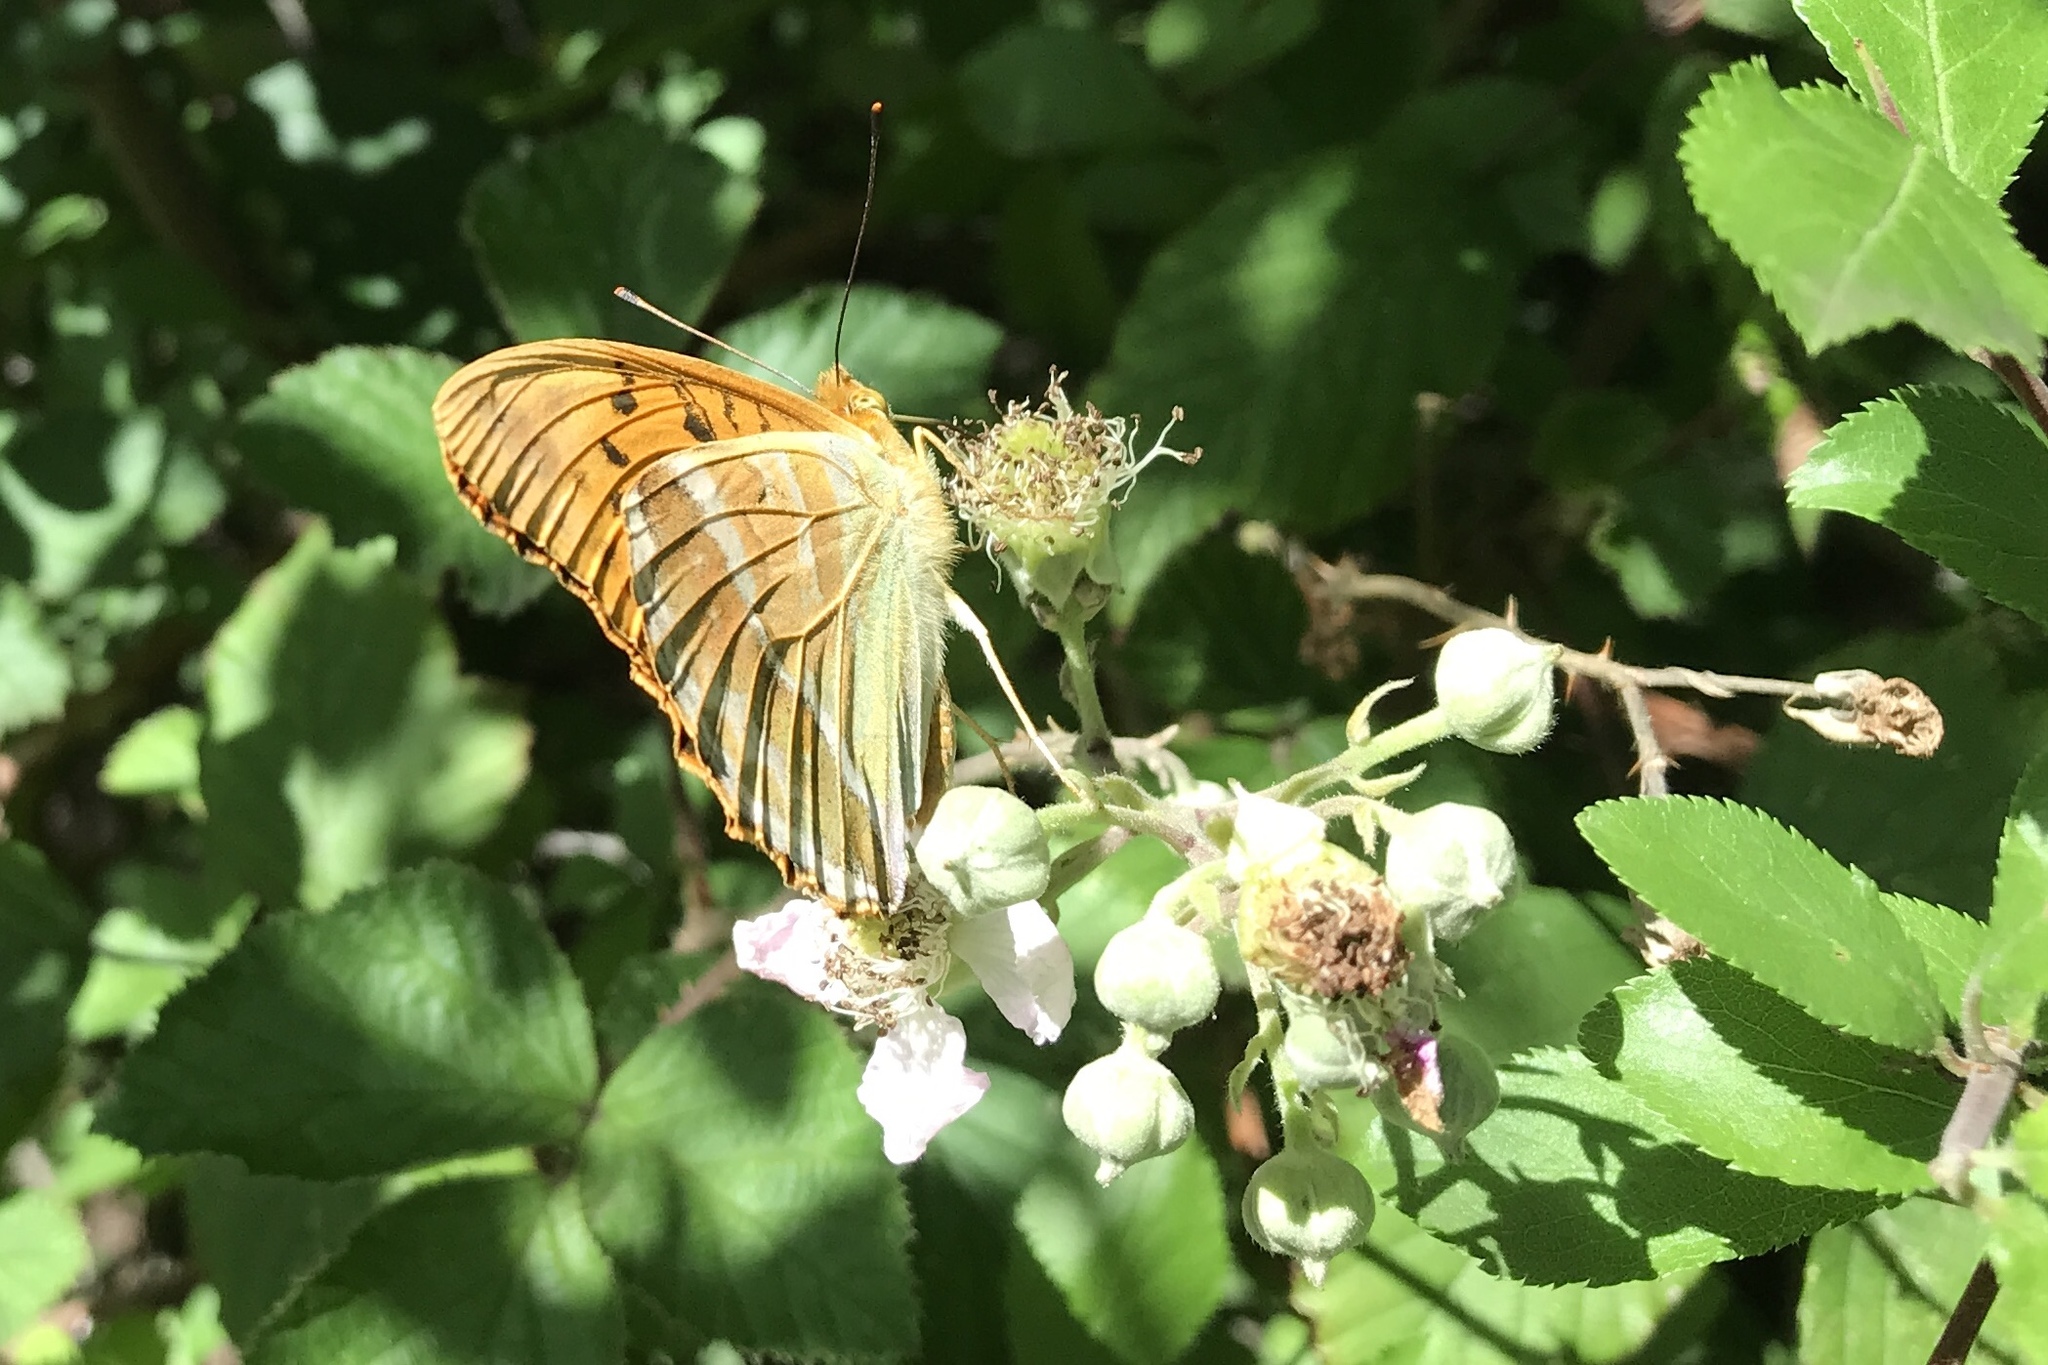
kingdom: Animalia
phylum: Arthropoda
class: Insecta
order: Lepidoptera
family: Nymphalidae
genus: Argynnis
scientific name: Argynnis paphia
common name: Silver-washed fritillary
